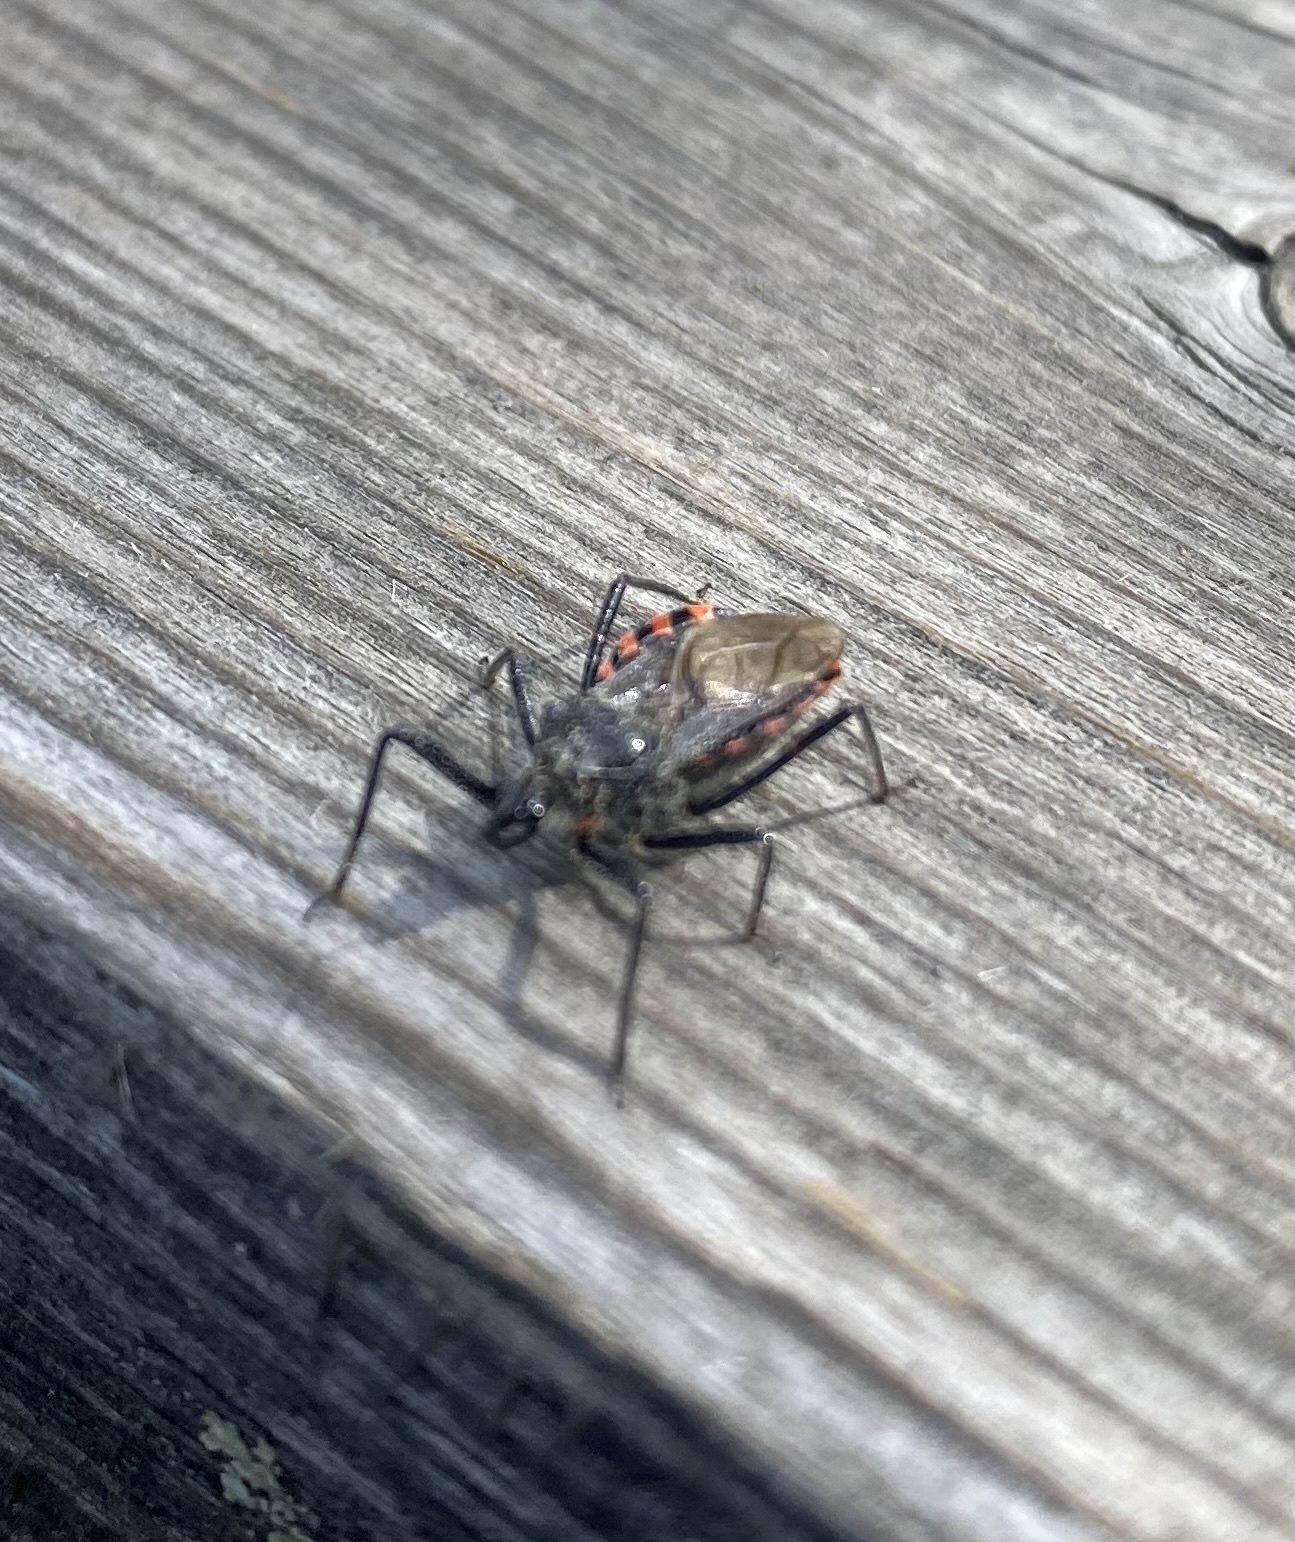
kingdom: Animalia
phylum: Arthropoda
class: Insecta
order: Hemiptera
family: Reduviidae
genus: Rhynocoris
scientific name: Rhynocoris leucospilus
